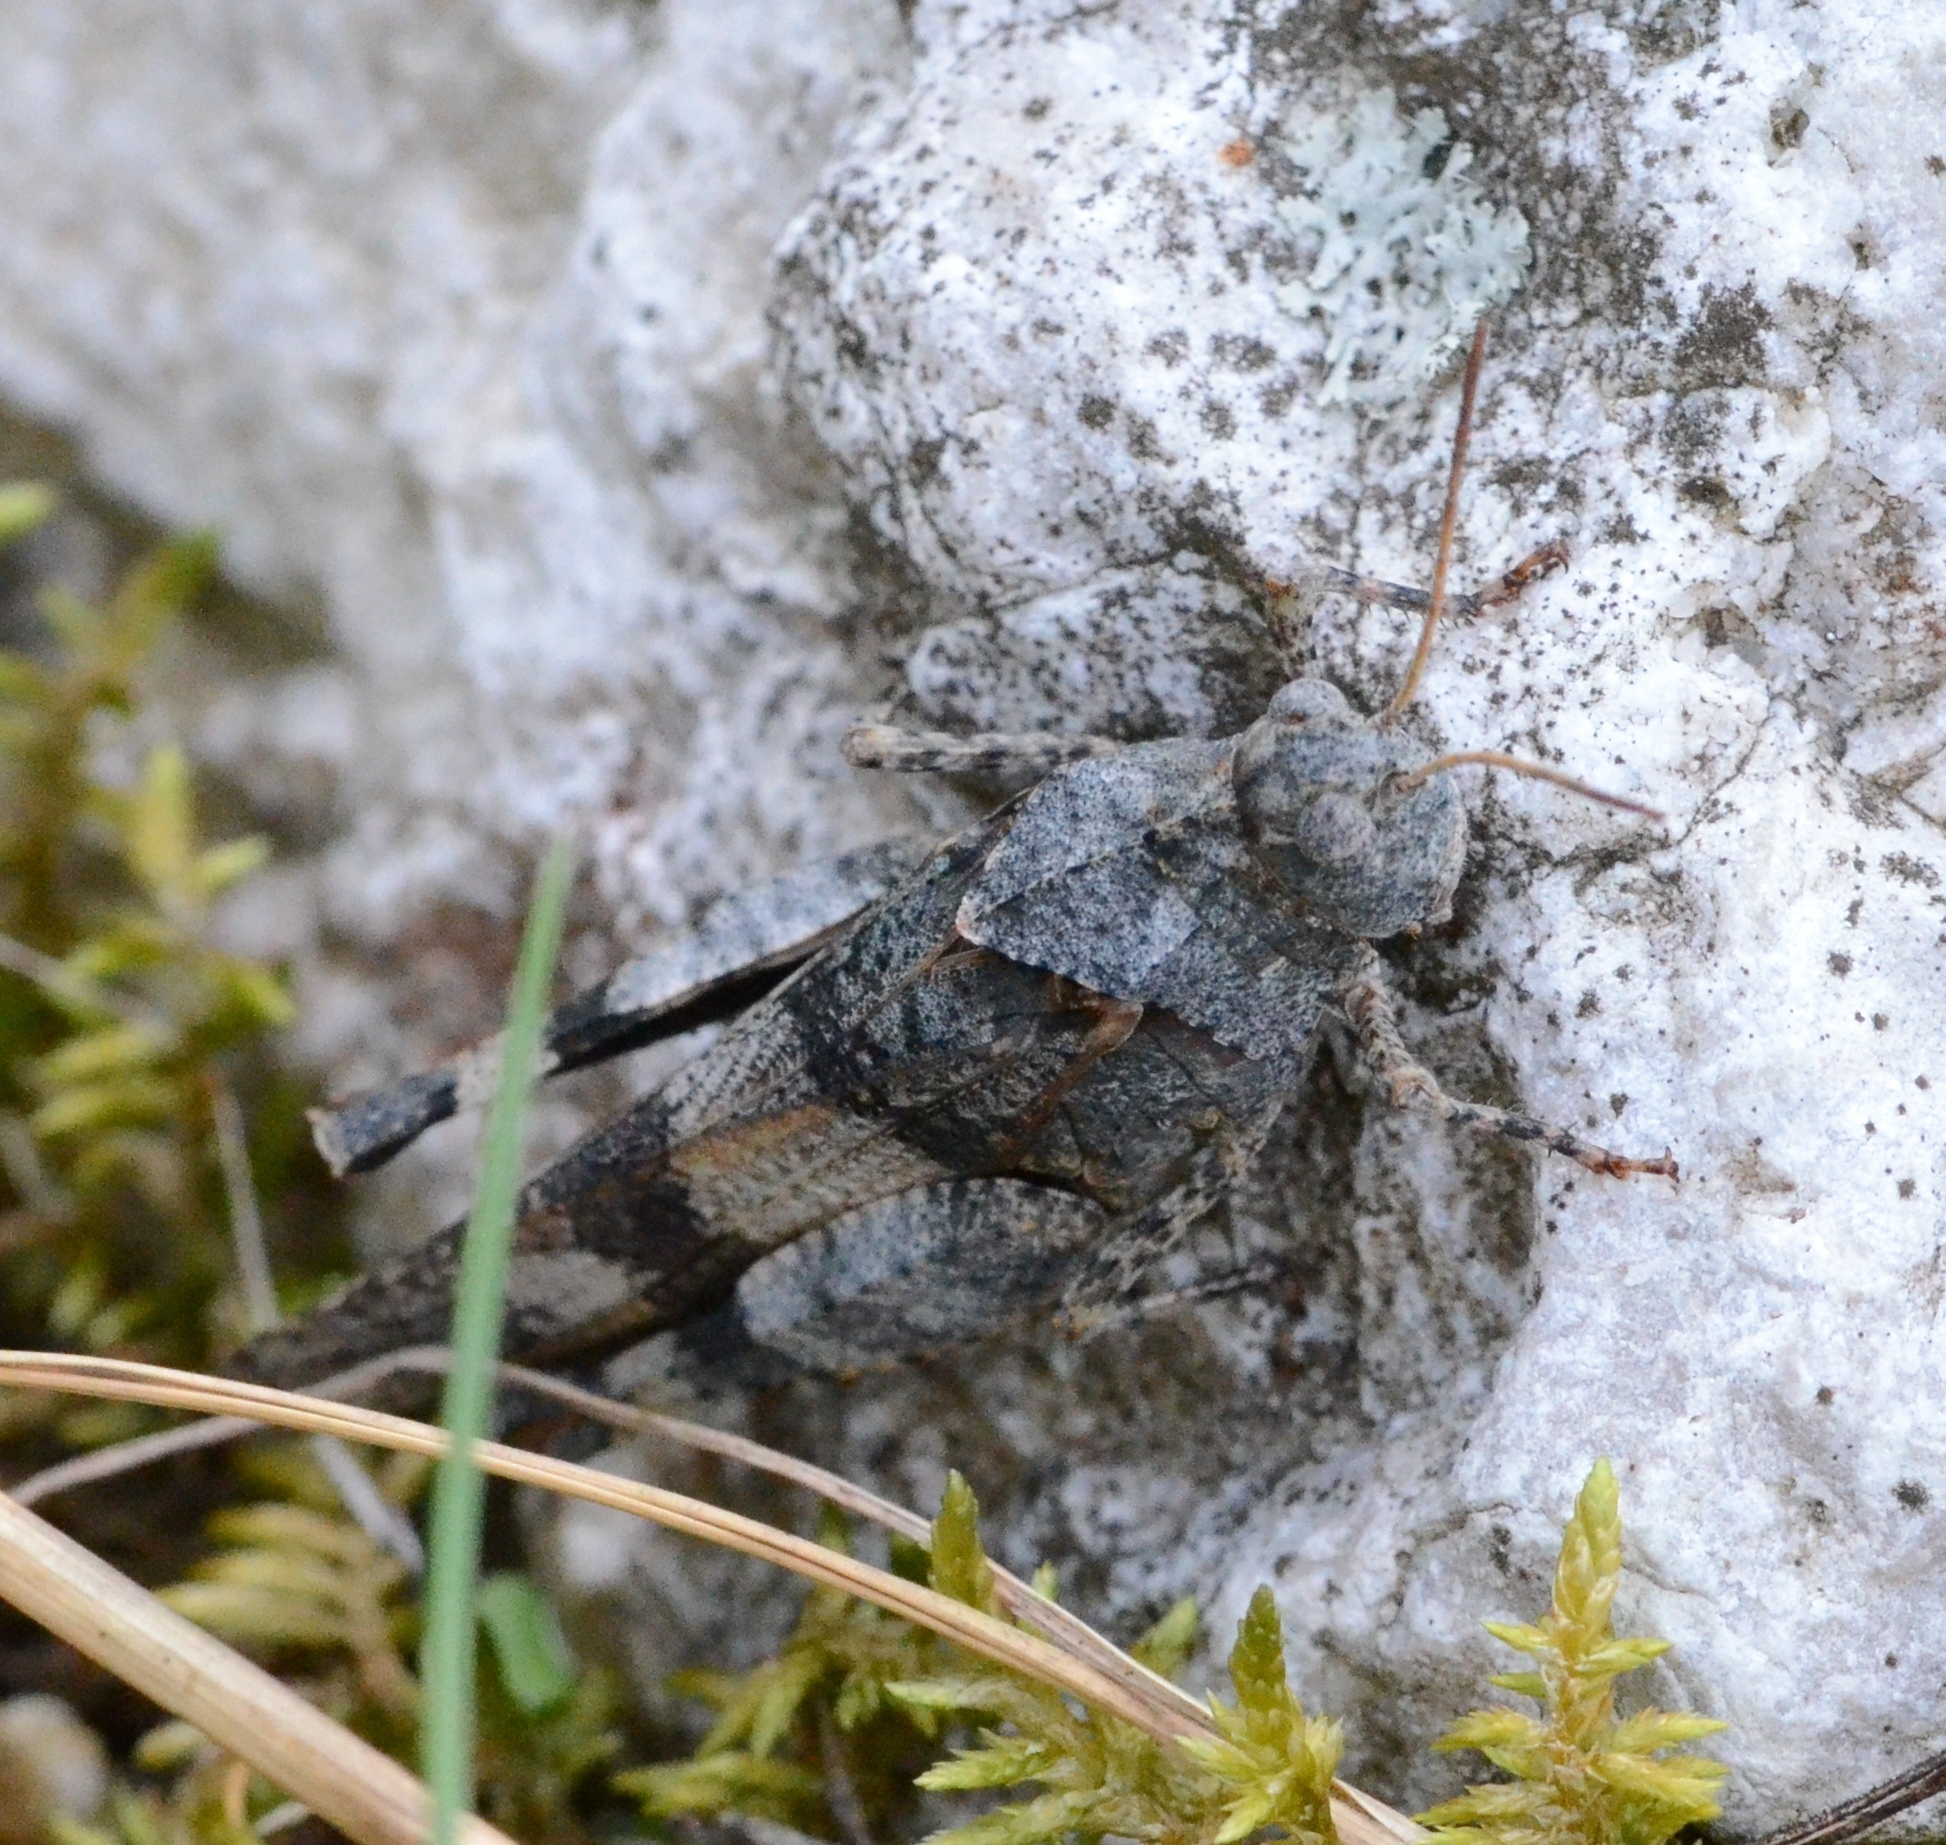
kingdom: Animalia
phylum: Arthropoda
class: Insecta
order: Orthoptera
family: Acrididae
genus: Oedipoda
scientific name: Oedipoda caerulescens
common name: Blue-winged grasshopper
